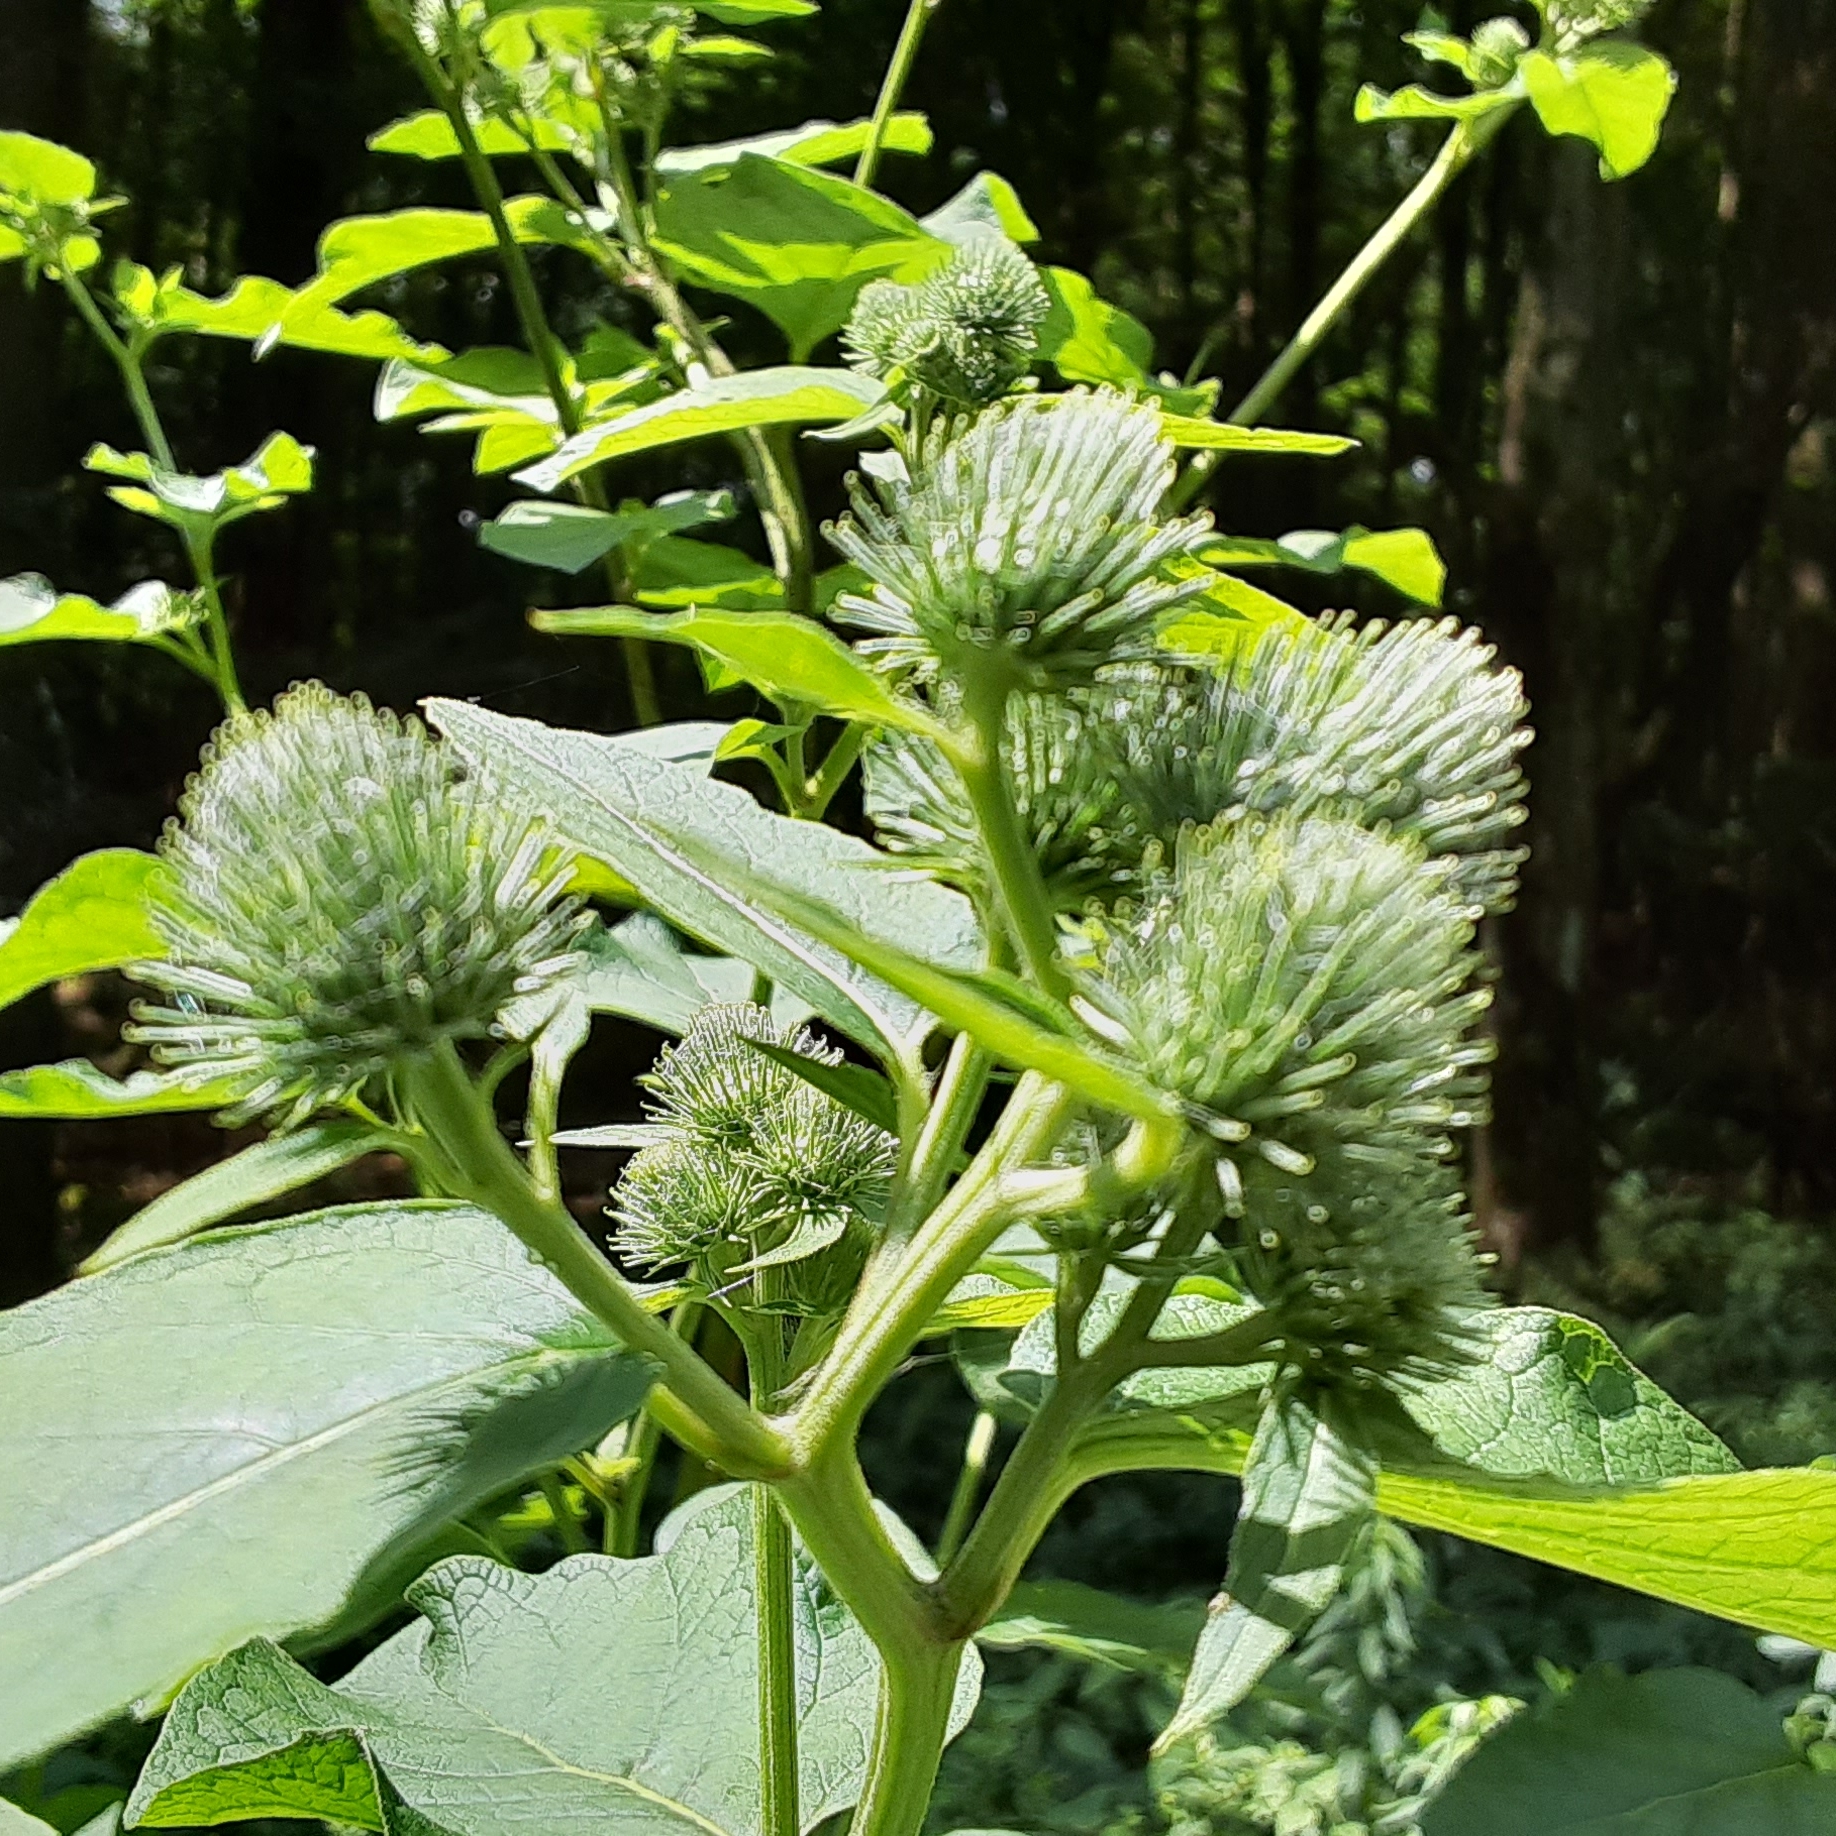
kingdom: Plantae
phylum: Tracheophyta
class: Magnoliopsida
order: Asterales
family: Asteraceae
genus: Arctium
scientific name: Arctium minus
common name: Lesser burdock
